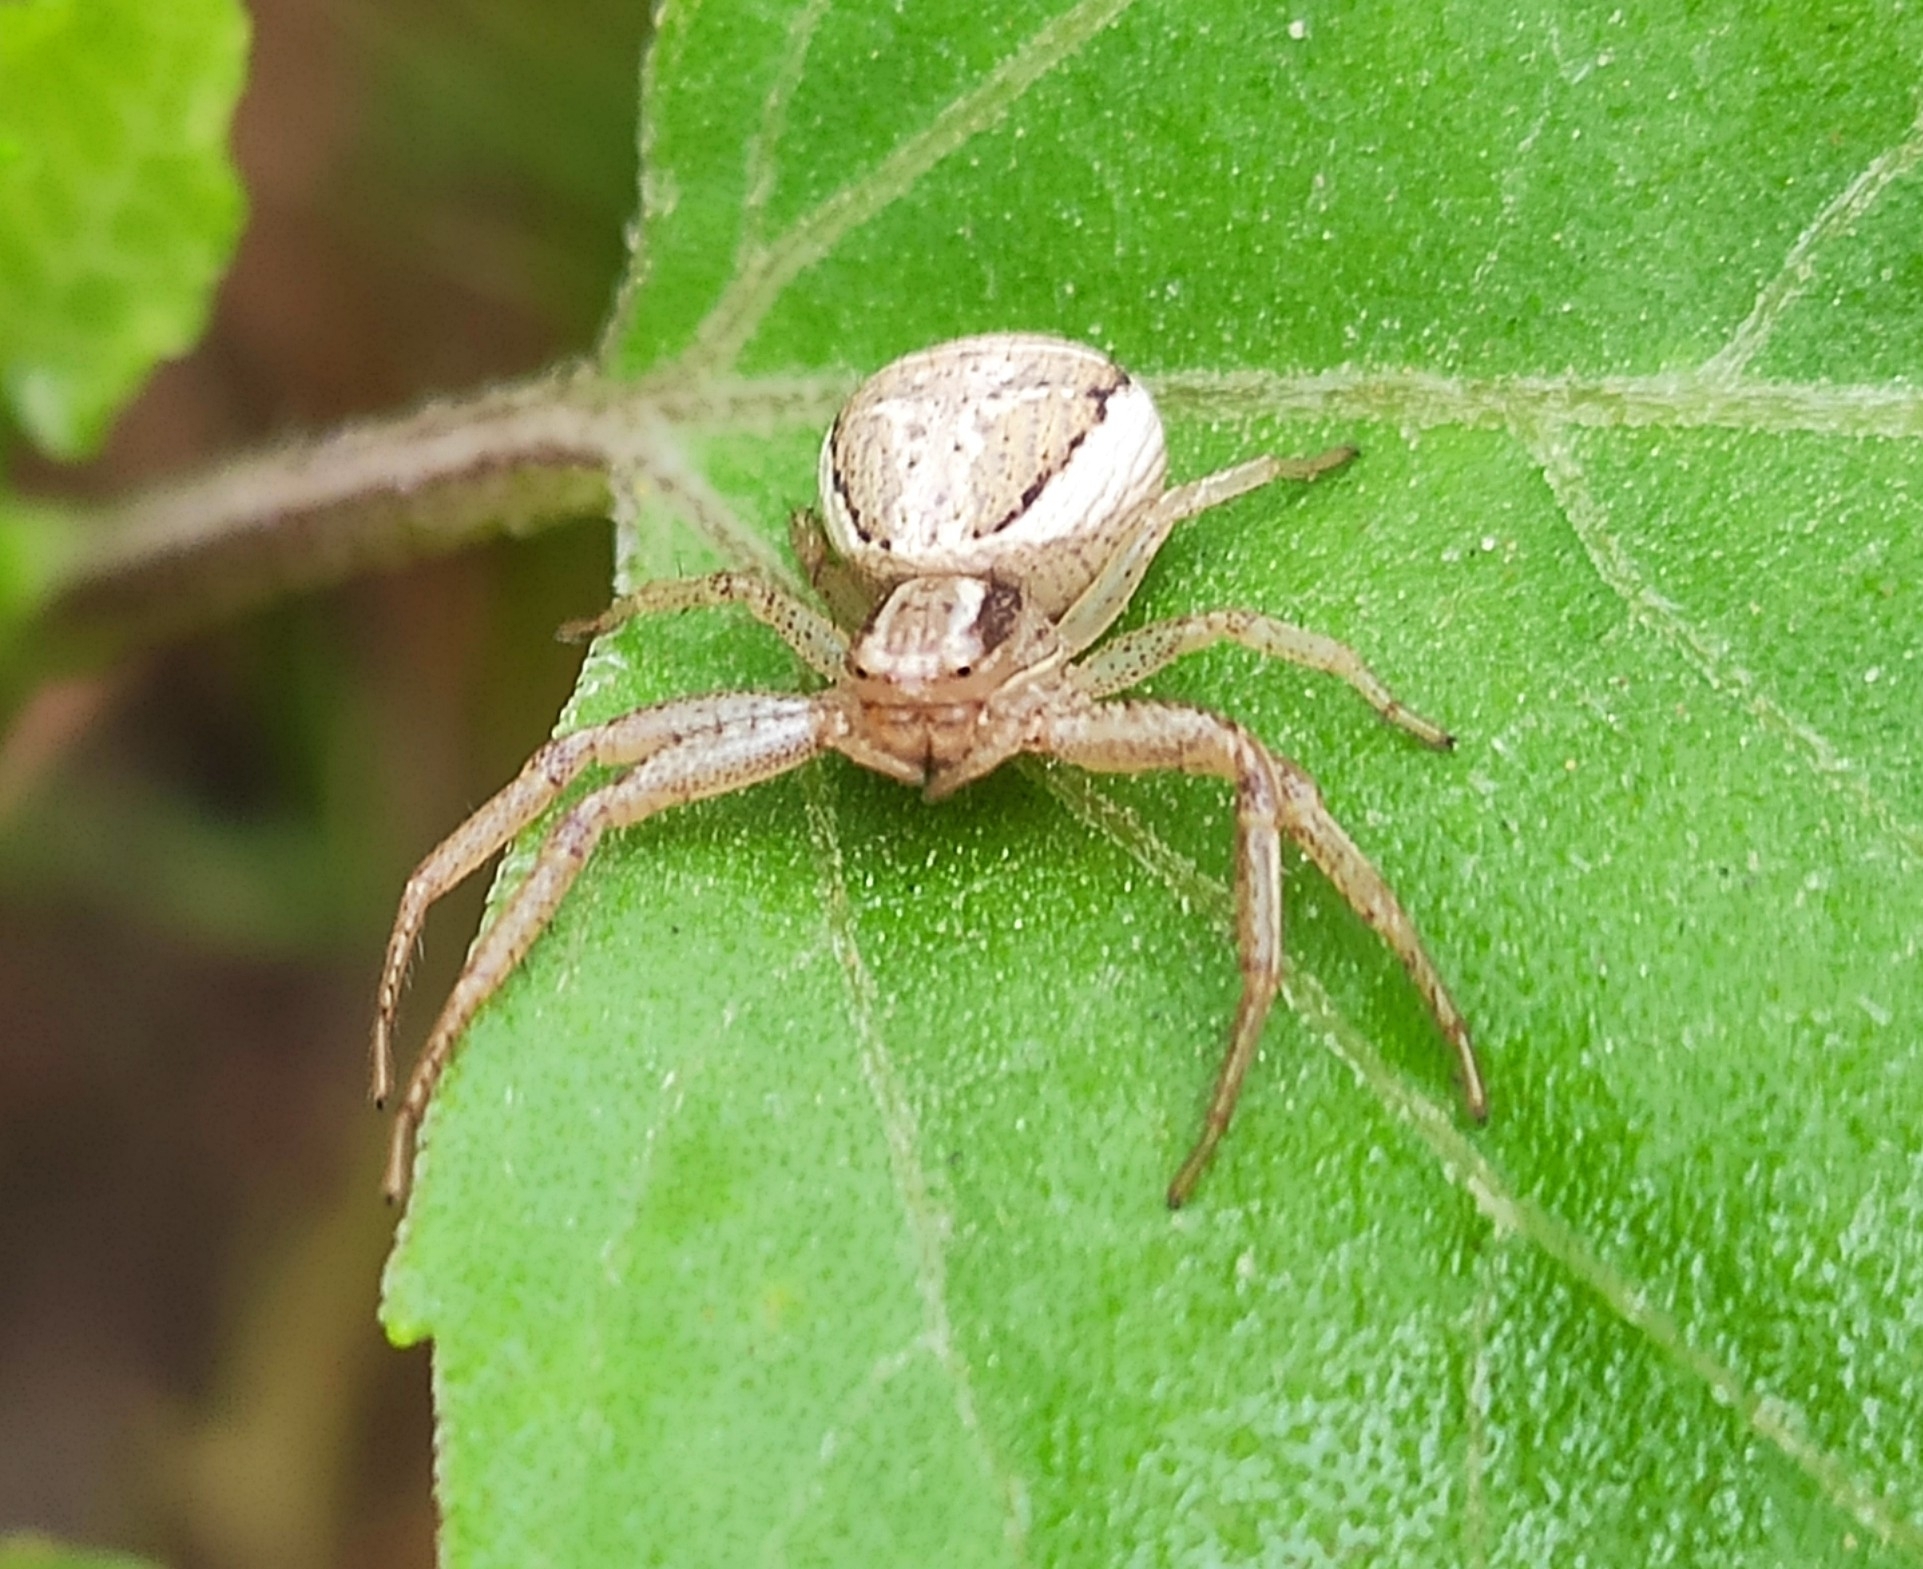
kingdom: Animalia
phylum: Arthropoda
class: Arachnida
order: Araneae
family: Thomisidae
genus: Xysticus
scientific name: Xysticus ulmi
